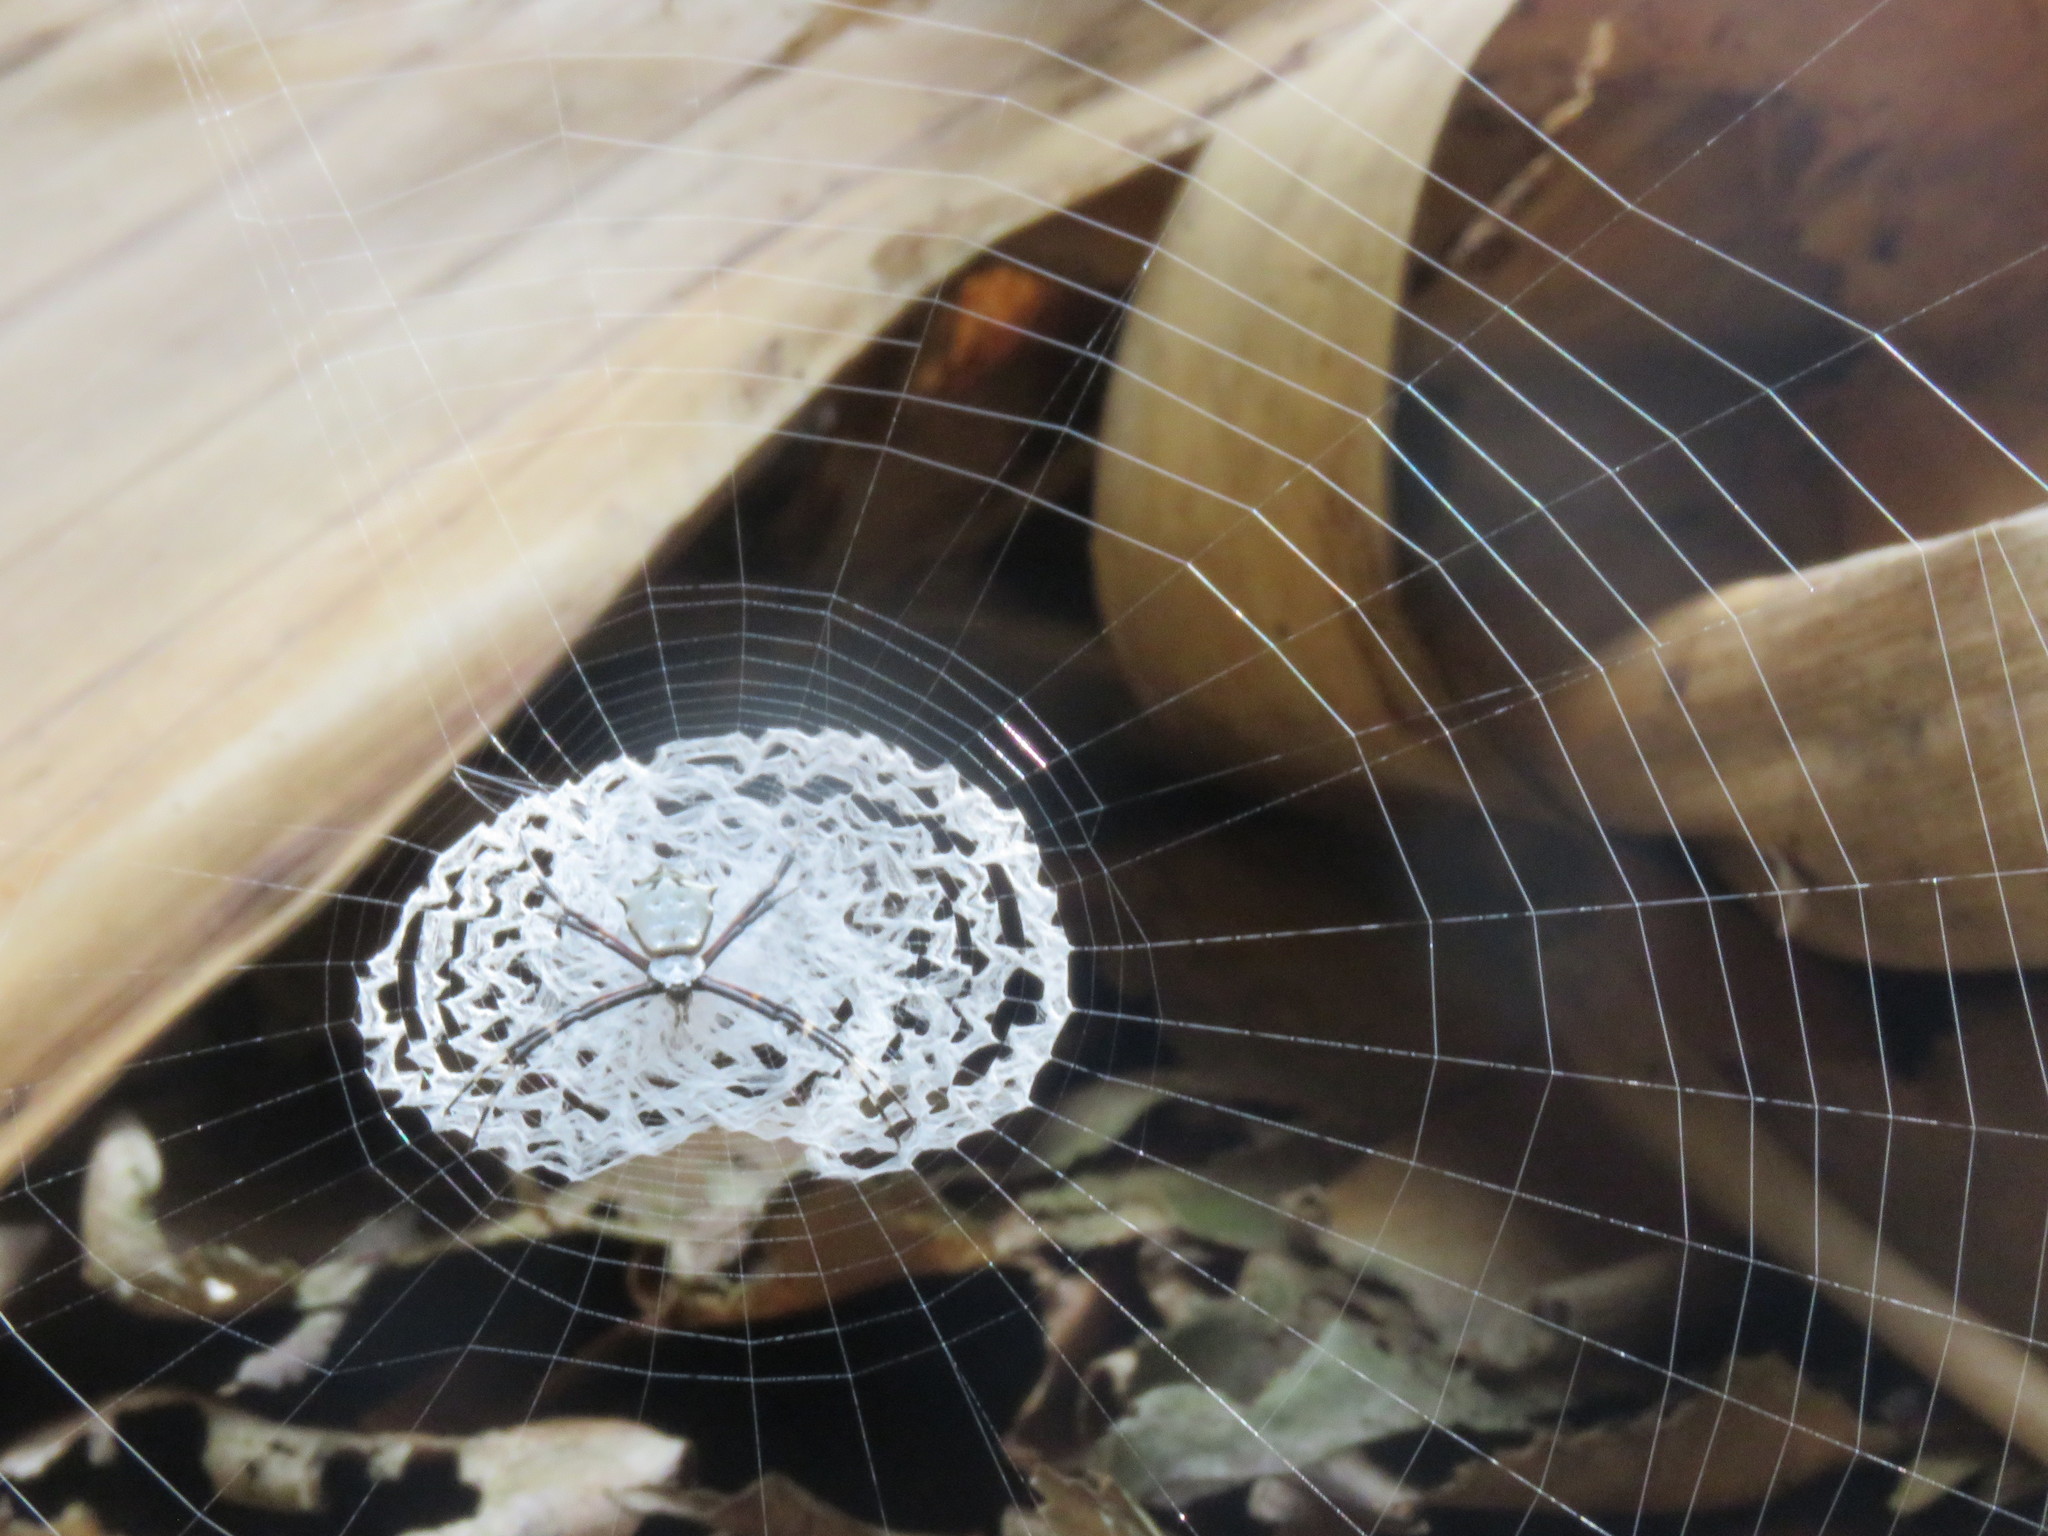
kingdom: Animalia
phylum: Arthropoda
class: Arachnida
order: Araneae
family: Araneidae
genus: Argiope
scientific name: Argiope submaronica
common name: Orb weavers
